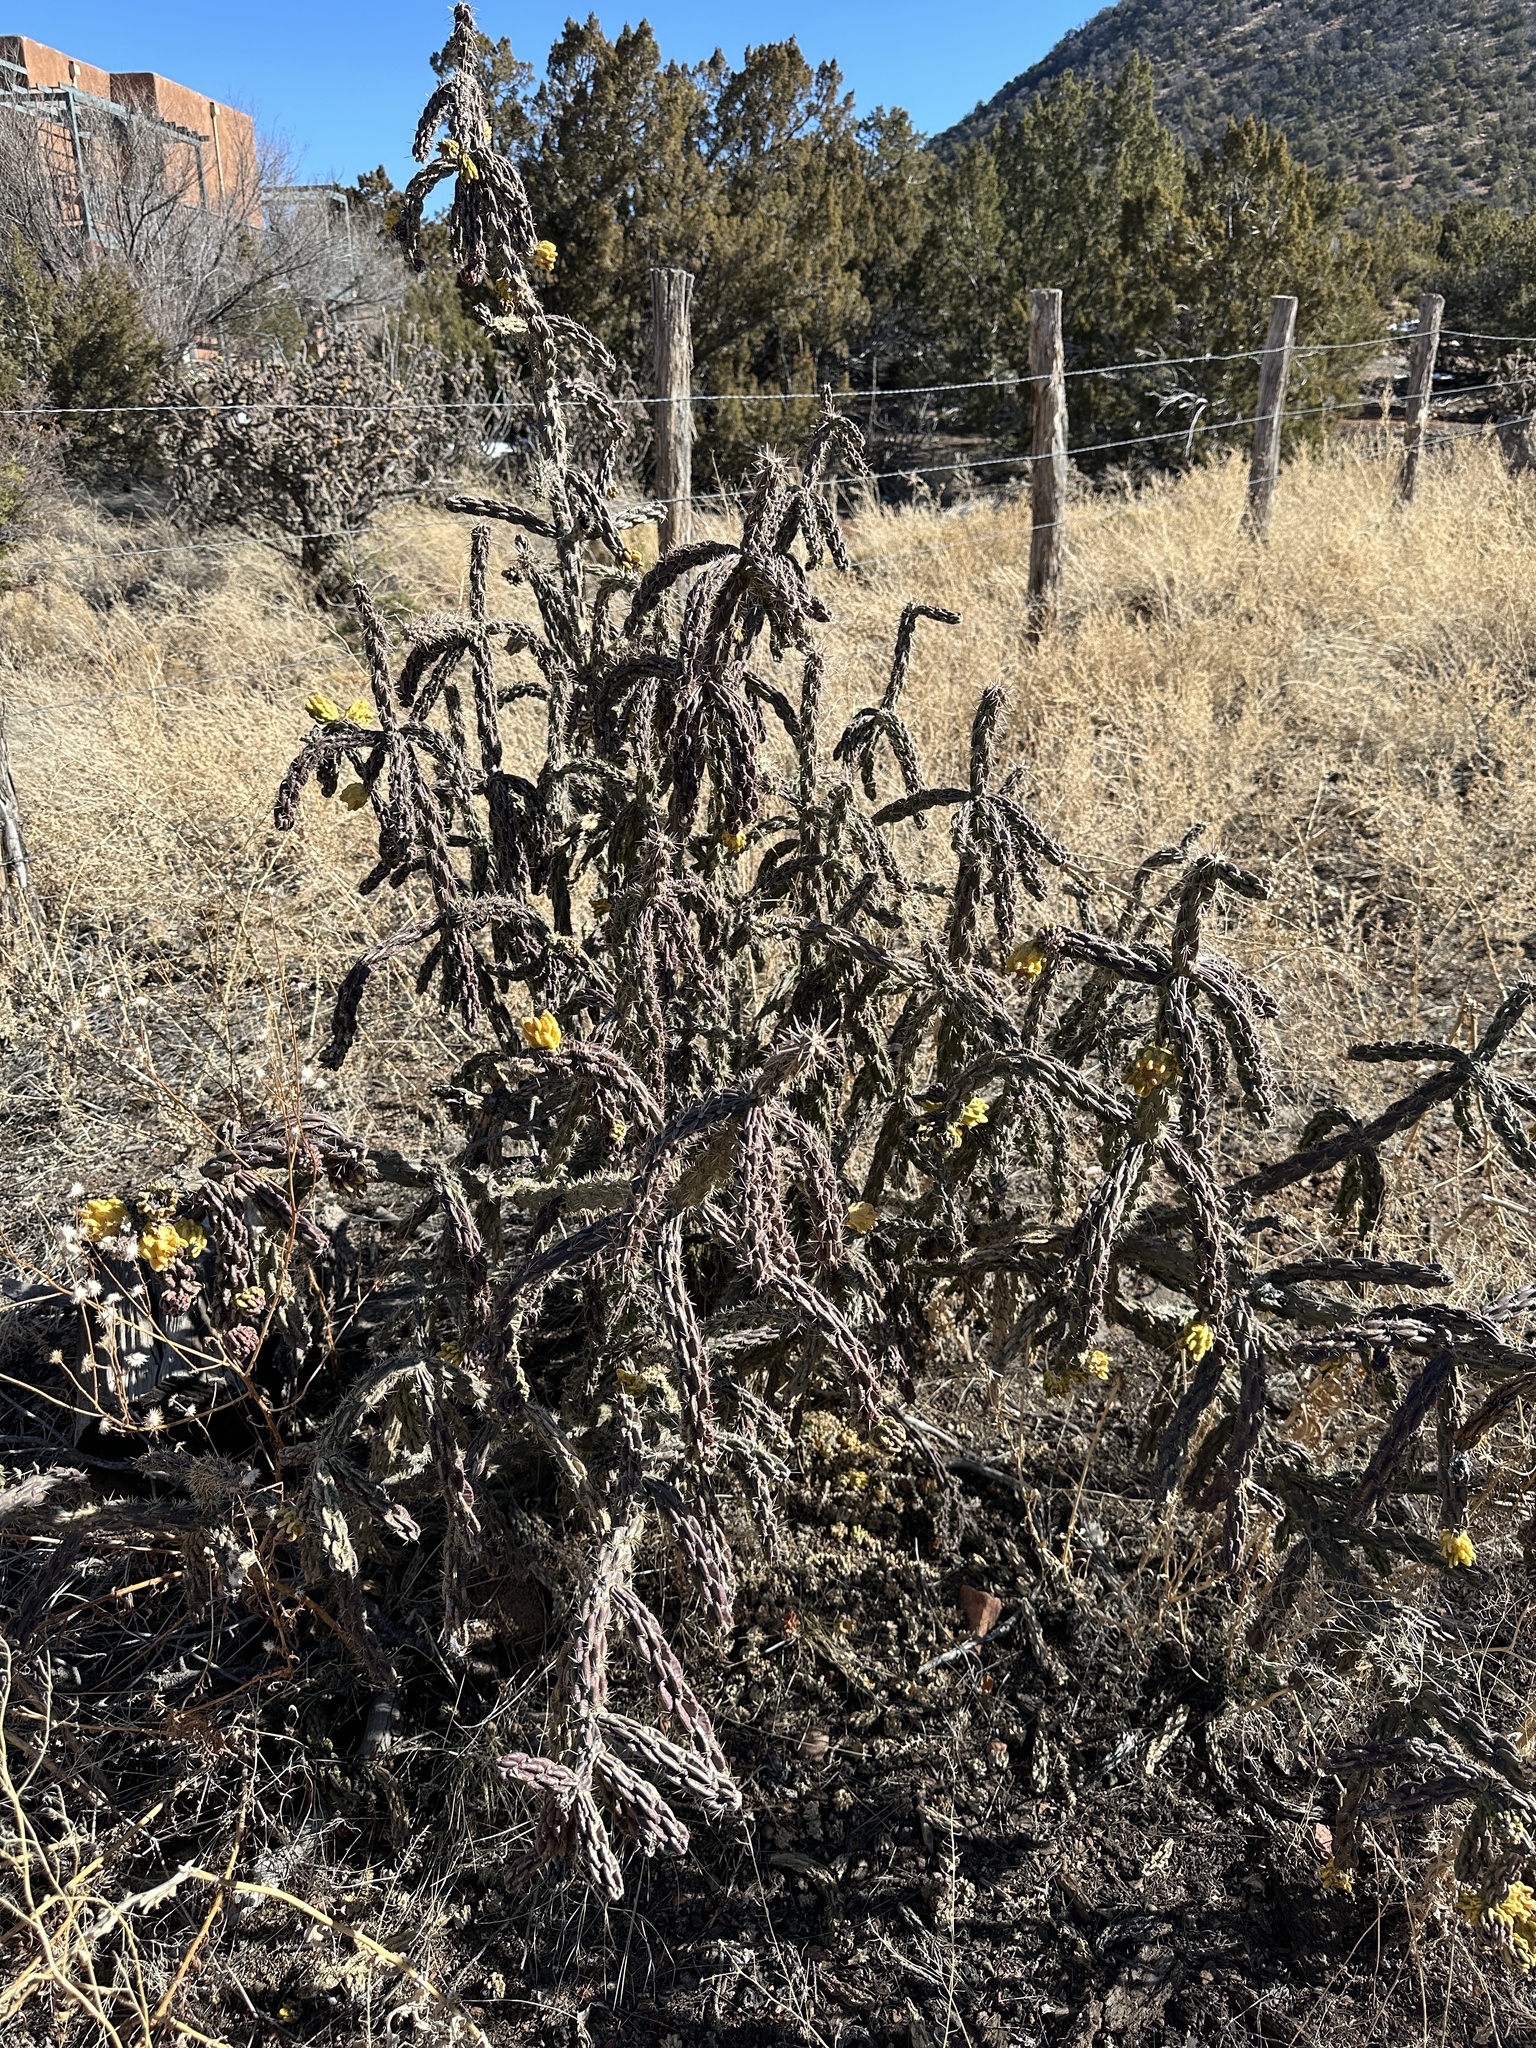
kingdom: Plantae
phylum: Tracheophyta
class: Magnoliopsida
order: Caryophyllales
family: Cactaceae
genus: Cylindropuntia
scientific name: Cylindropuntia imbricata
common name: Candelabrum cactus
